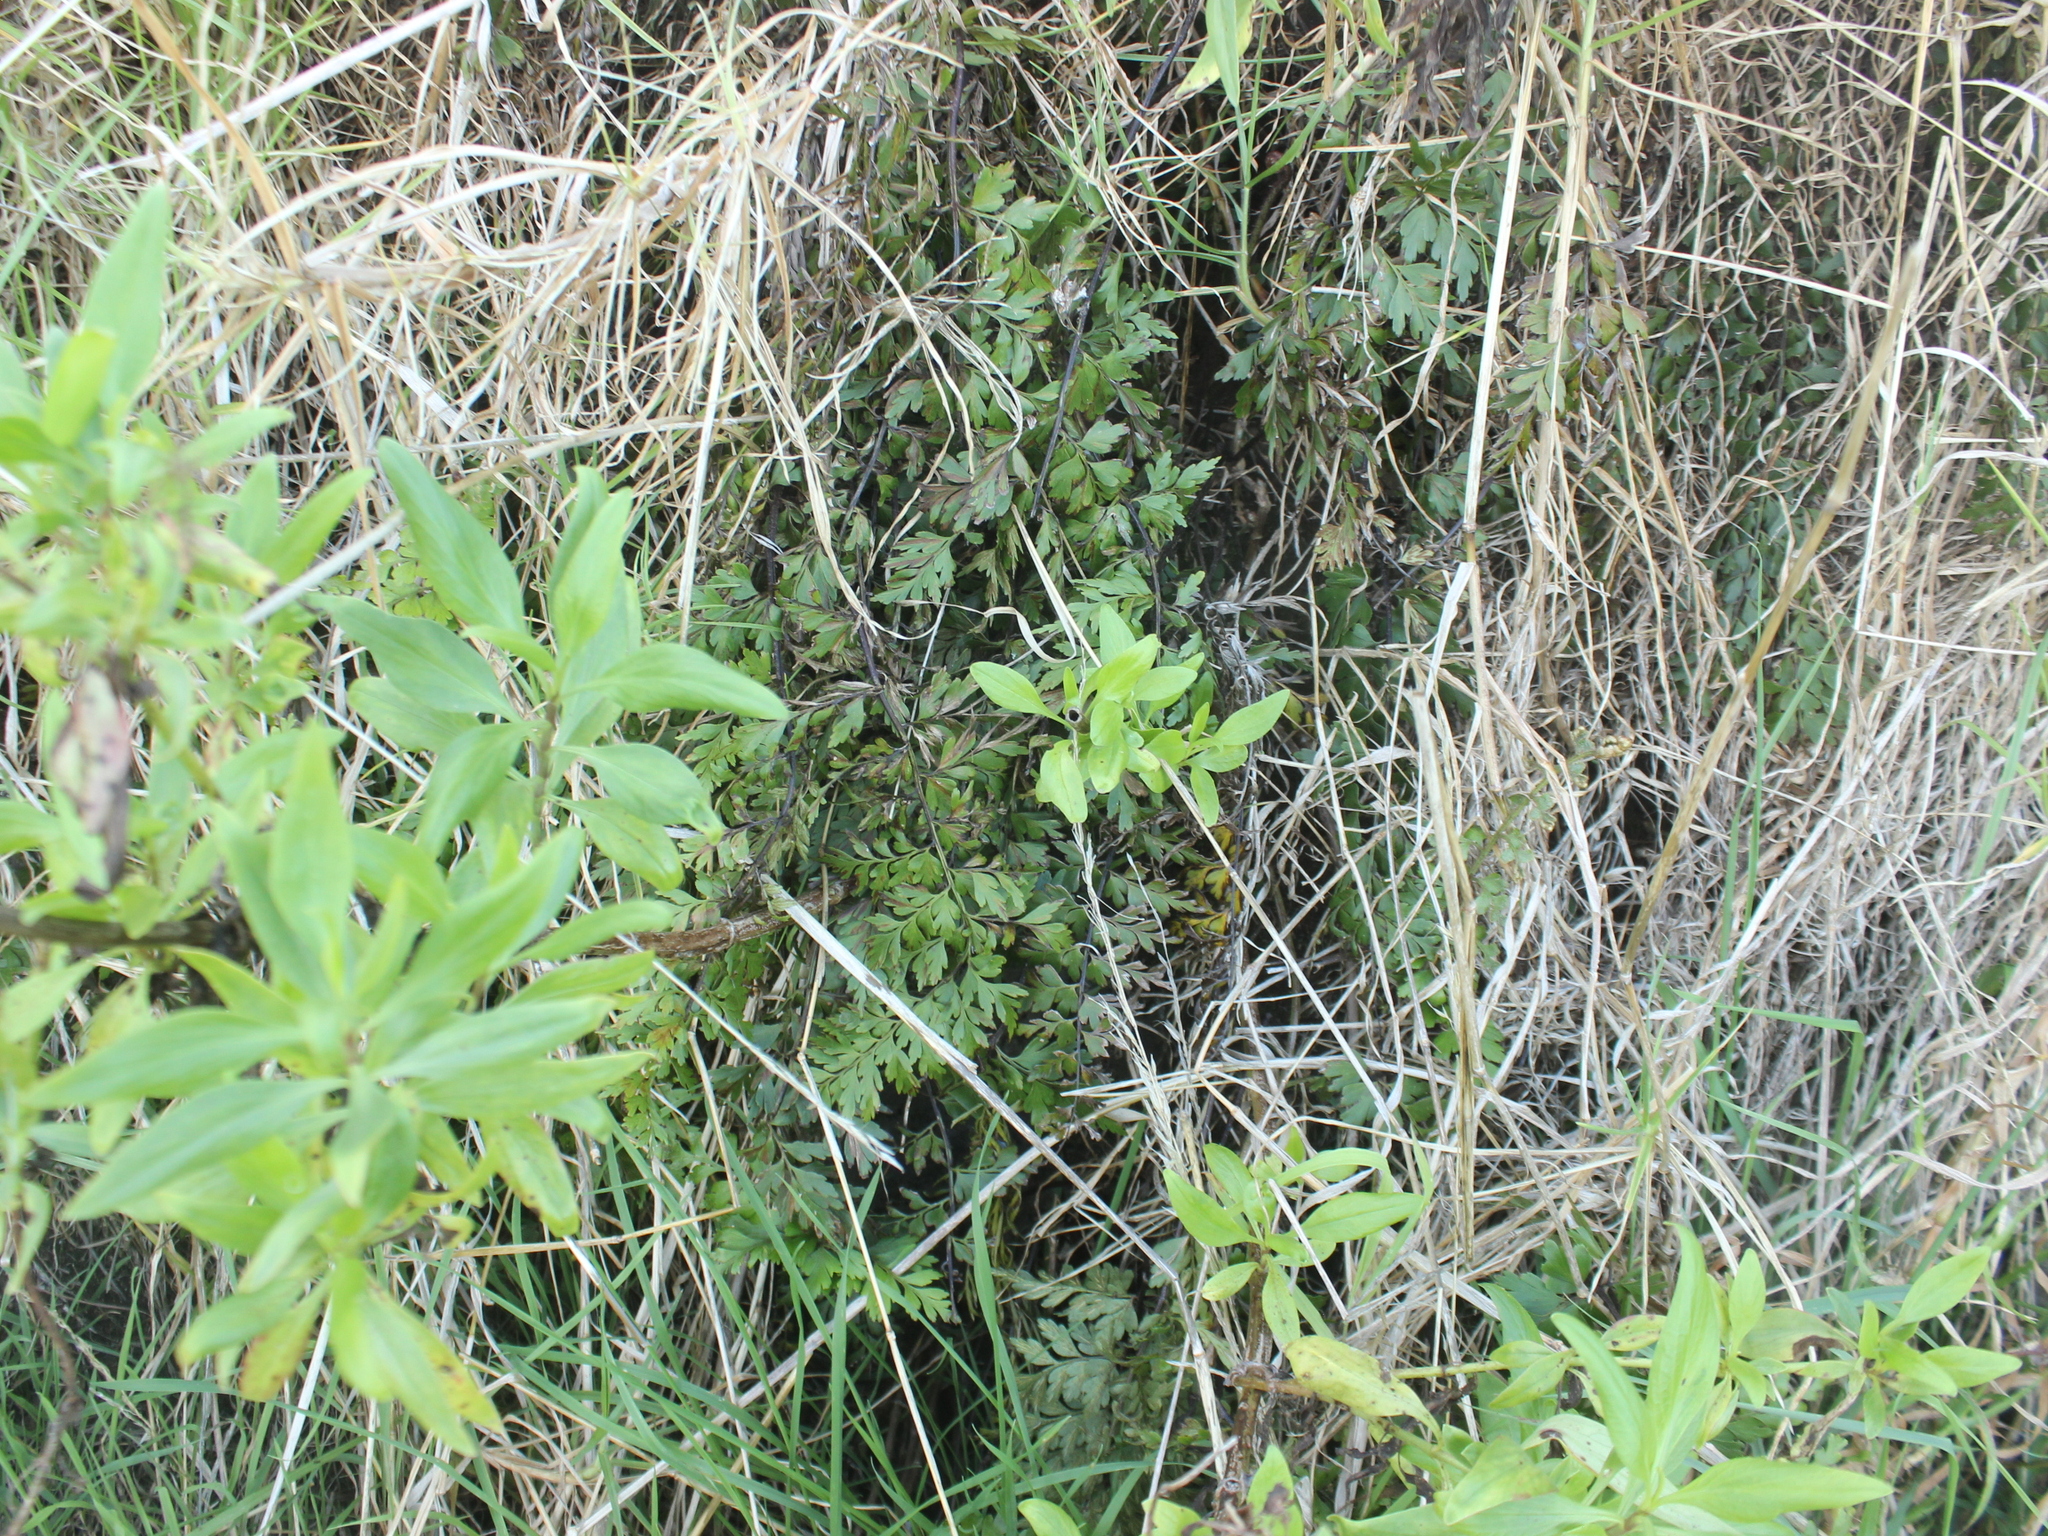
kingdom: Plantae
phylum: Tracheophyta
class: Polypodiopsida
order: Polypodiales
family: Aspleniaceae
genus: Asplenium
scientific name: Asplenium aethiopicum
